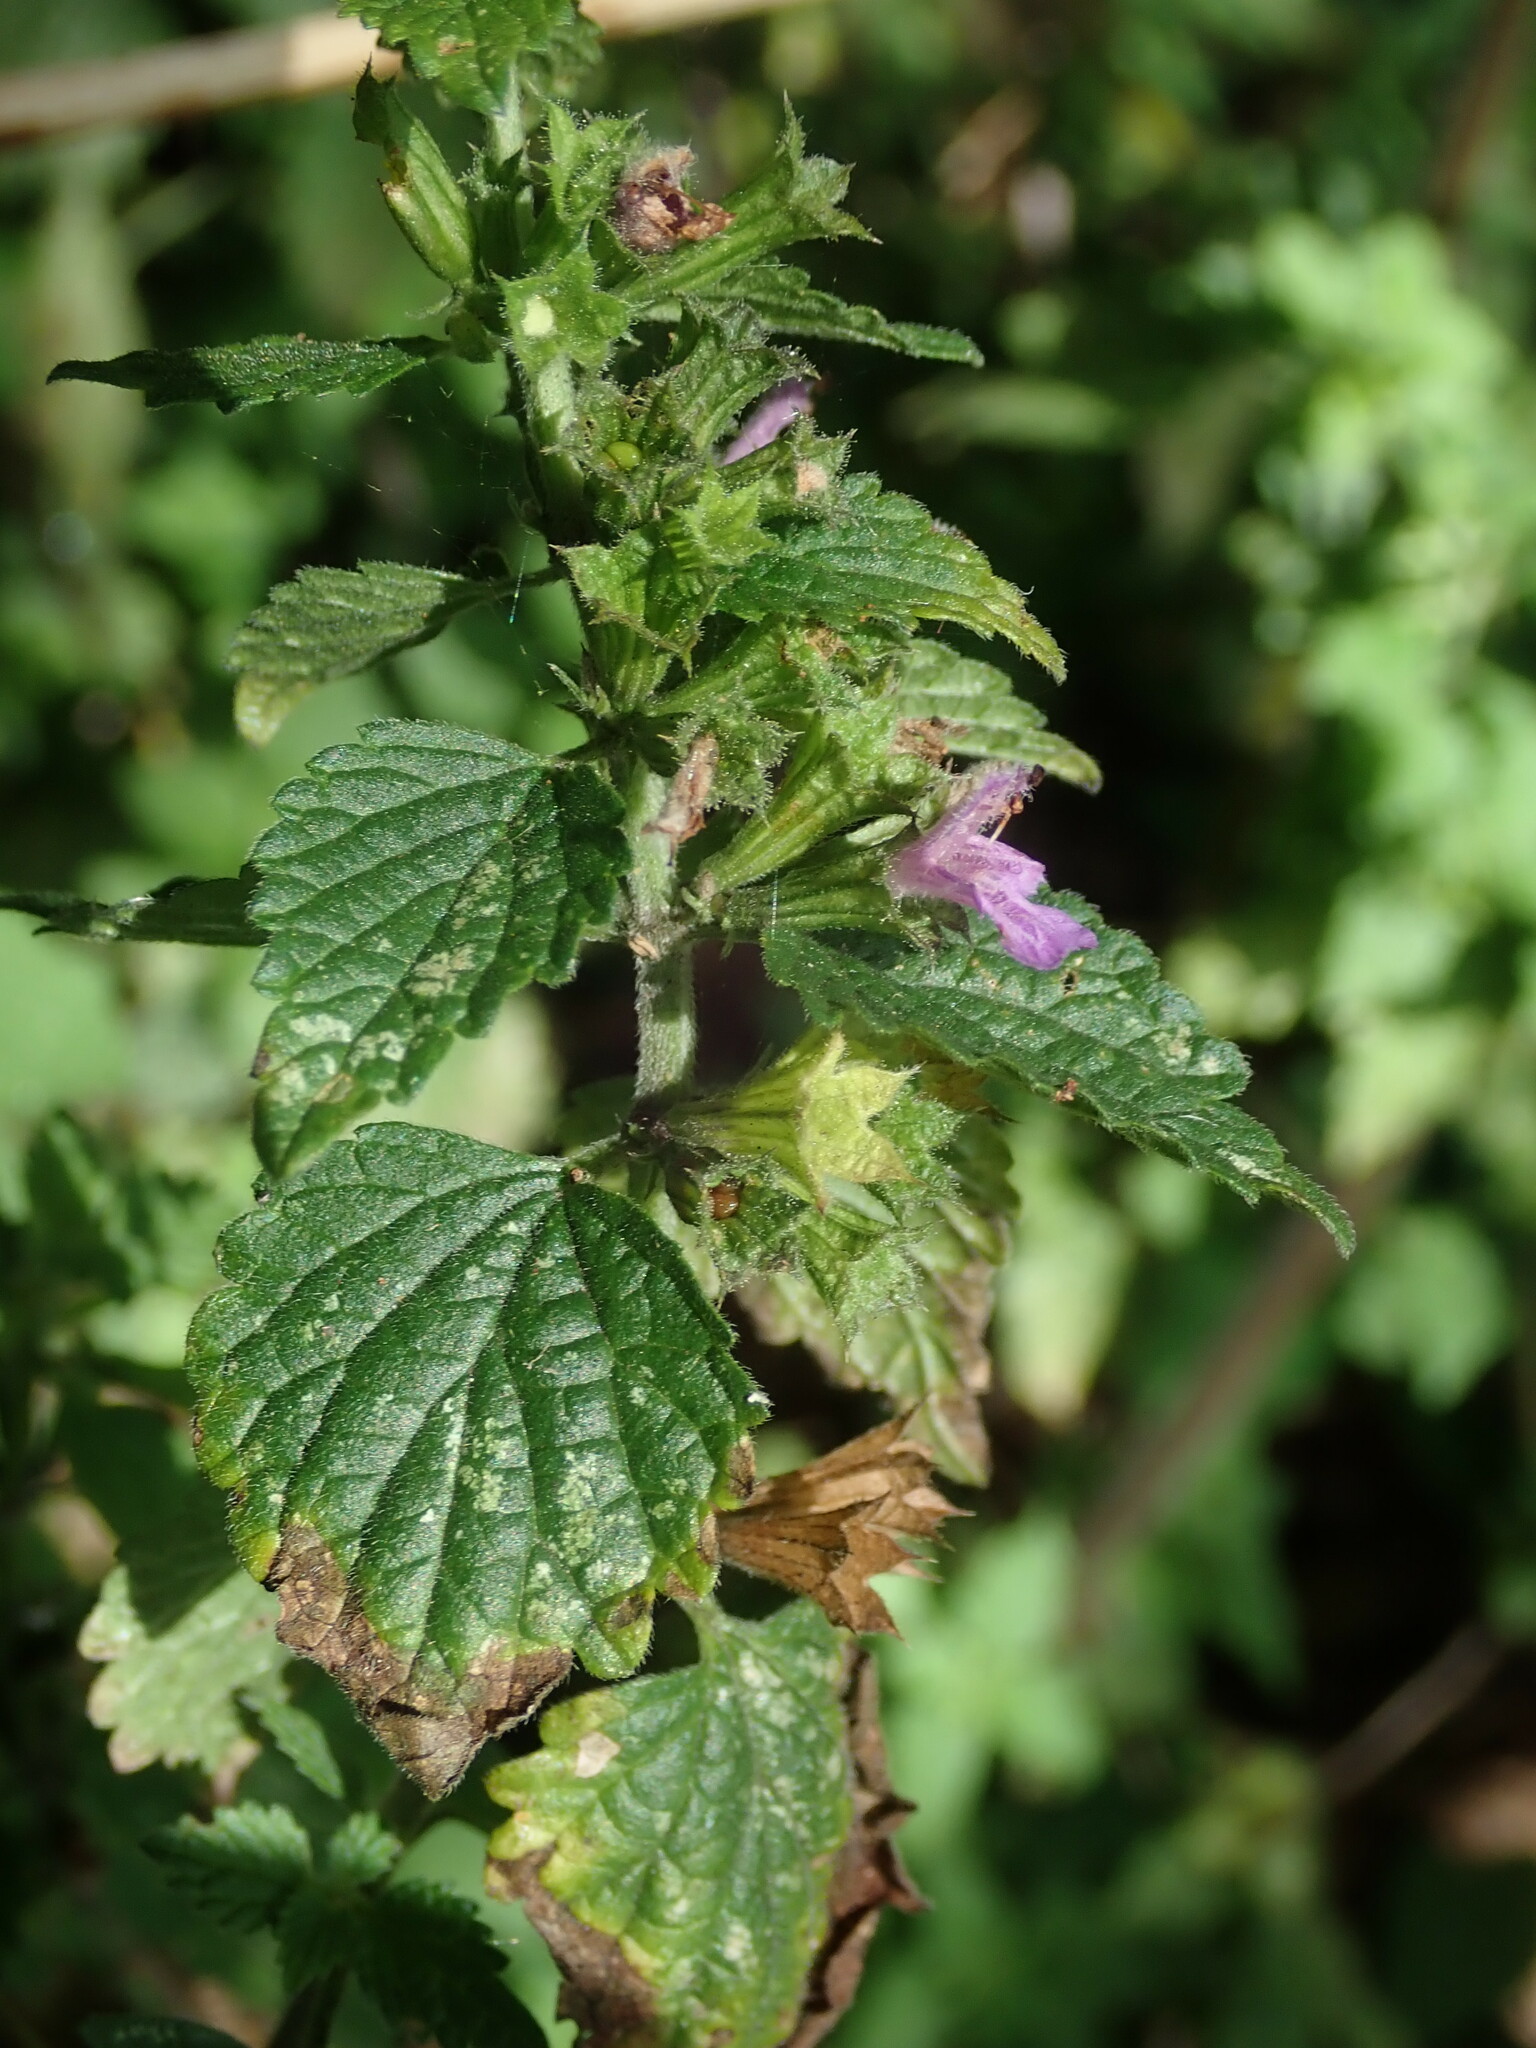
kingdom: Plantae
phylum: Tracheophyta
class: Magnoliopsida
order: Lamiales
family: Lamiaceae
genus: Ballota
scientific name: Ballota nigra
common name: Black horehound
